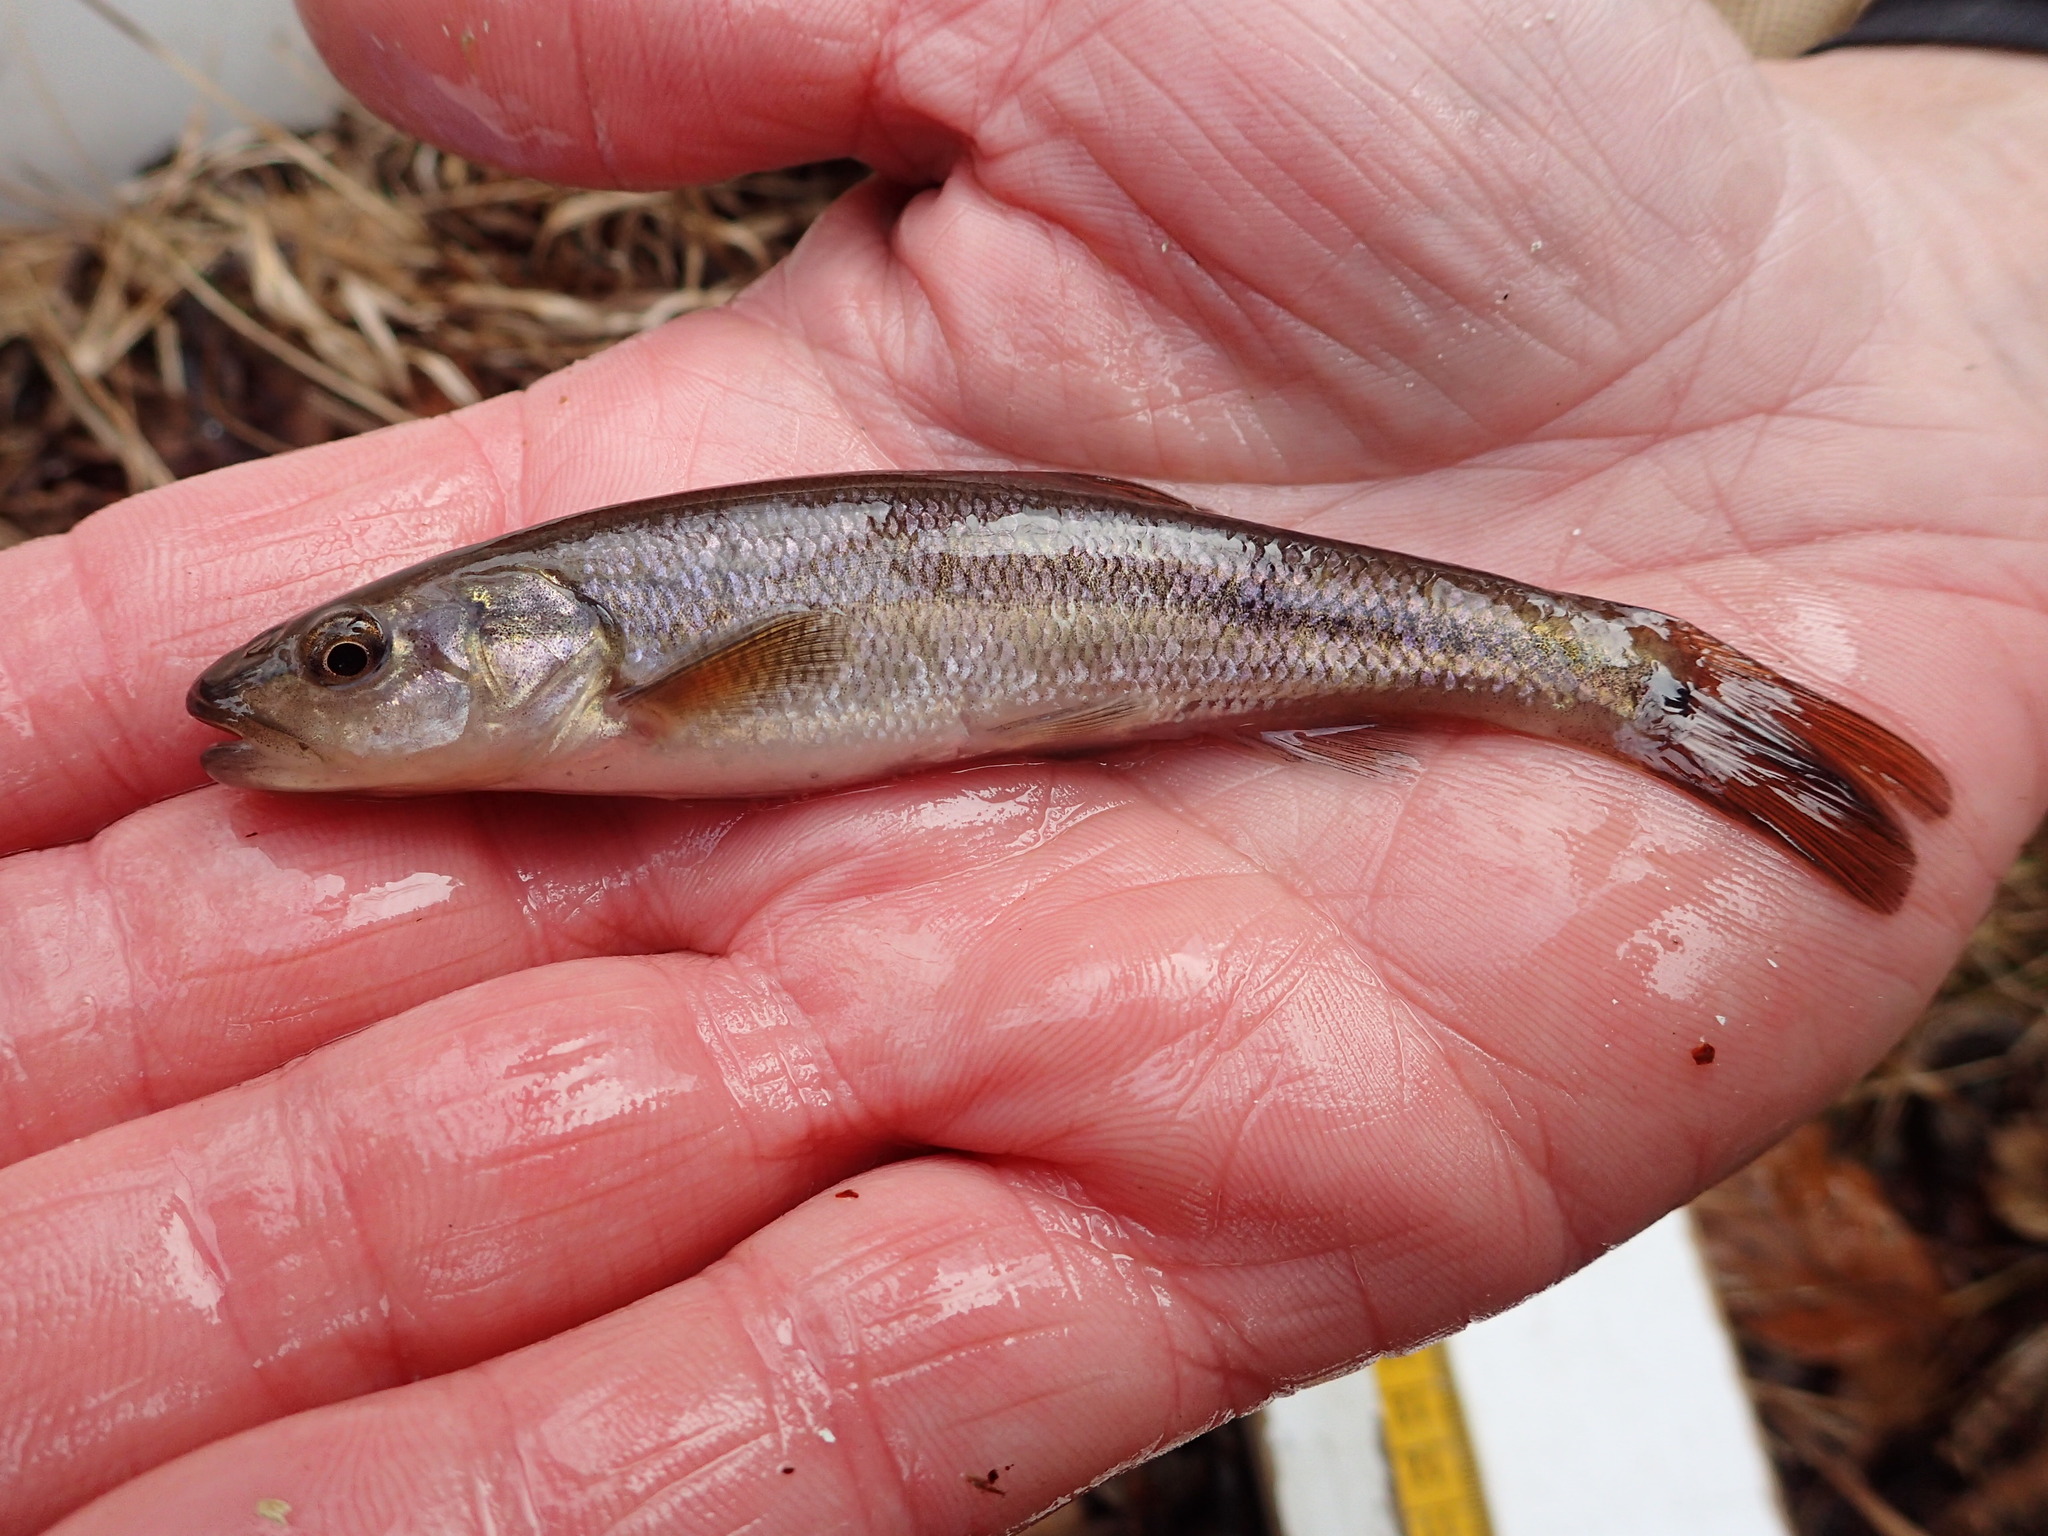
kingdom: Animalia
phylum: Chordata
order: Cypriniformes
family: Cyprinidae
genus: Semotilus
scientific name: Semotilus atromaculatus
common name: Creek chub
